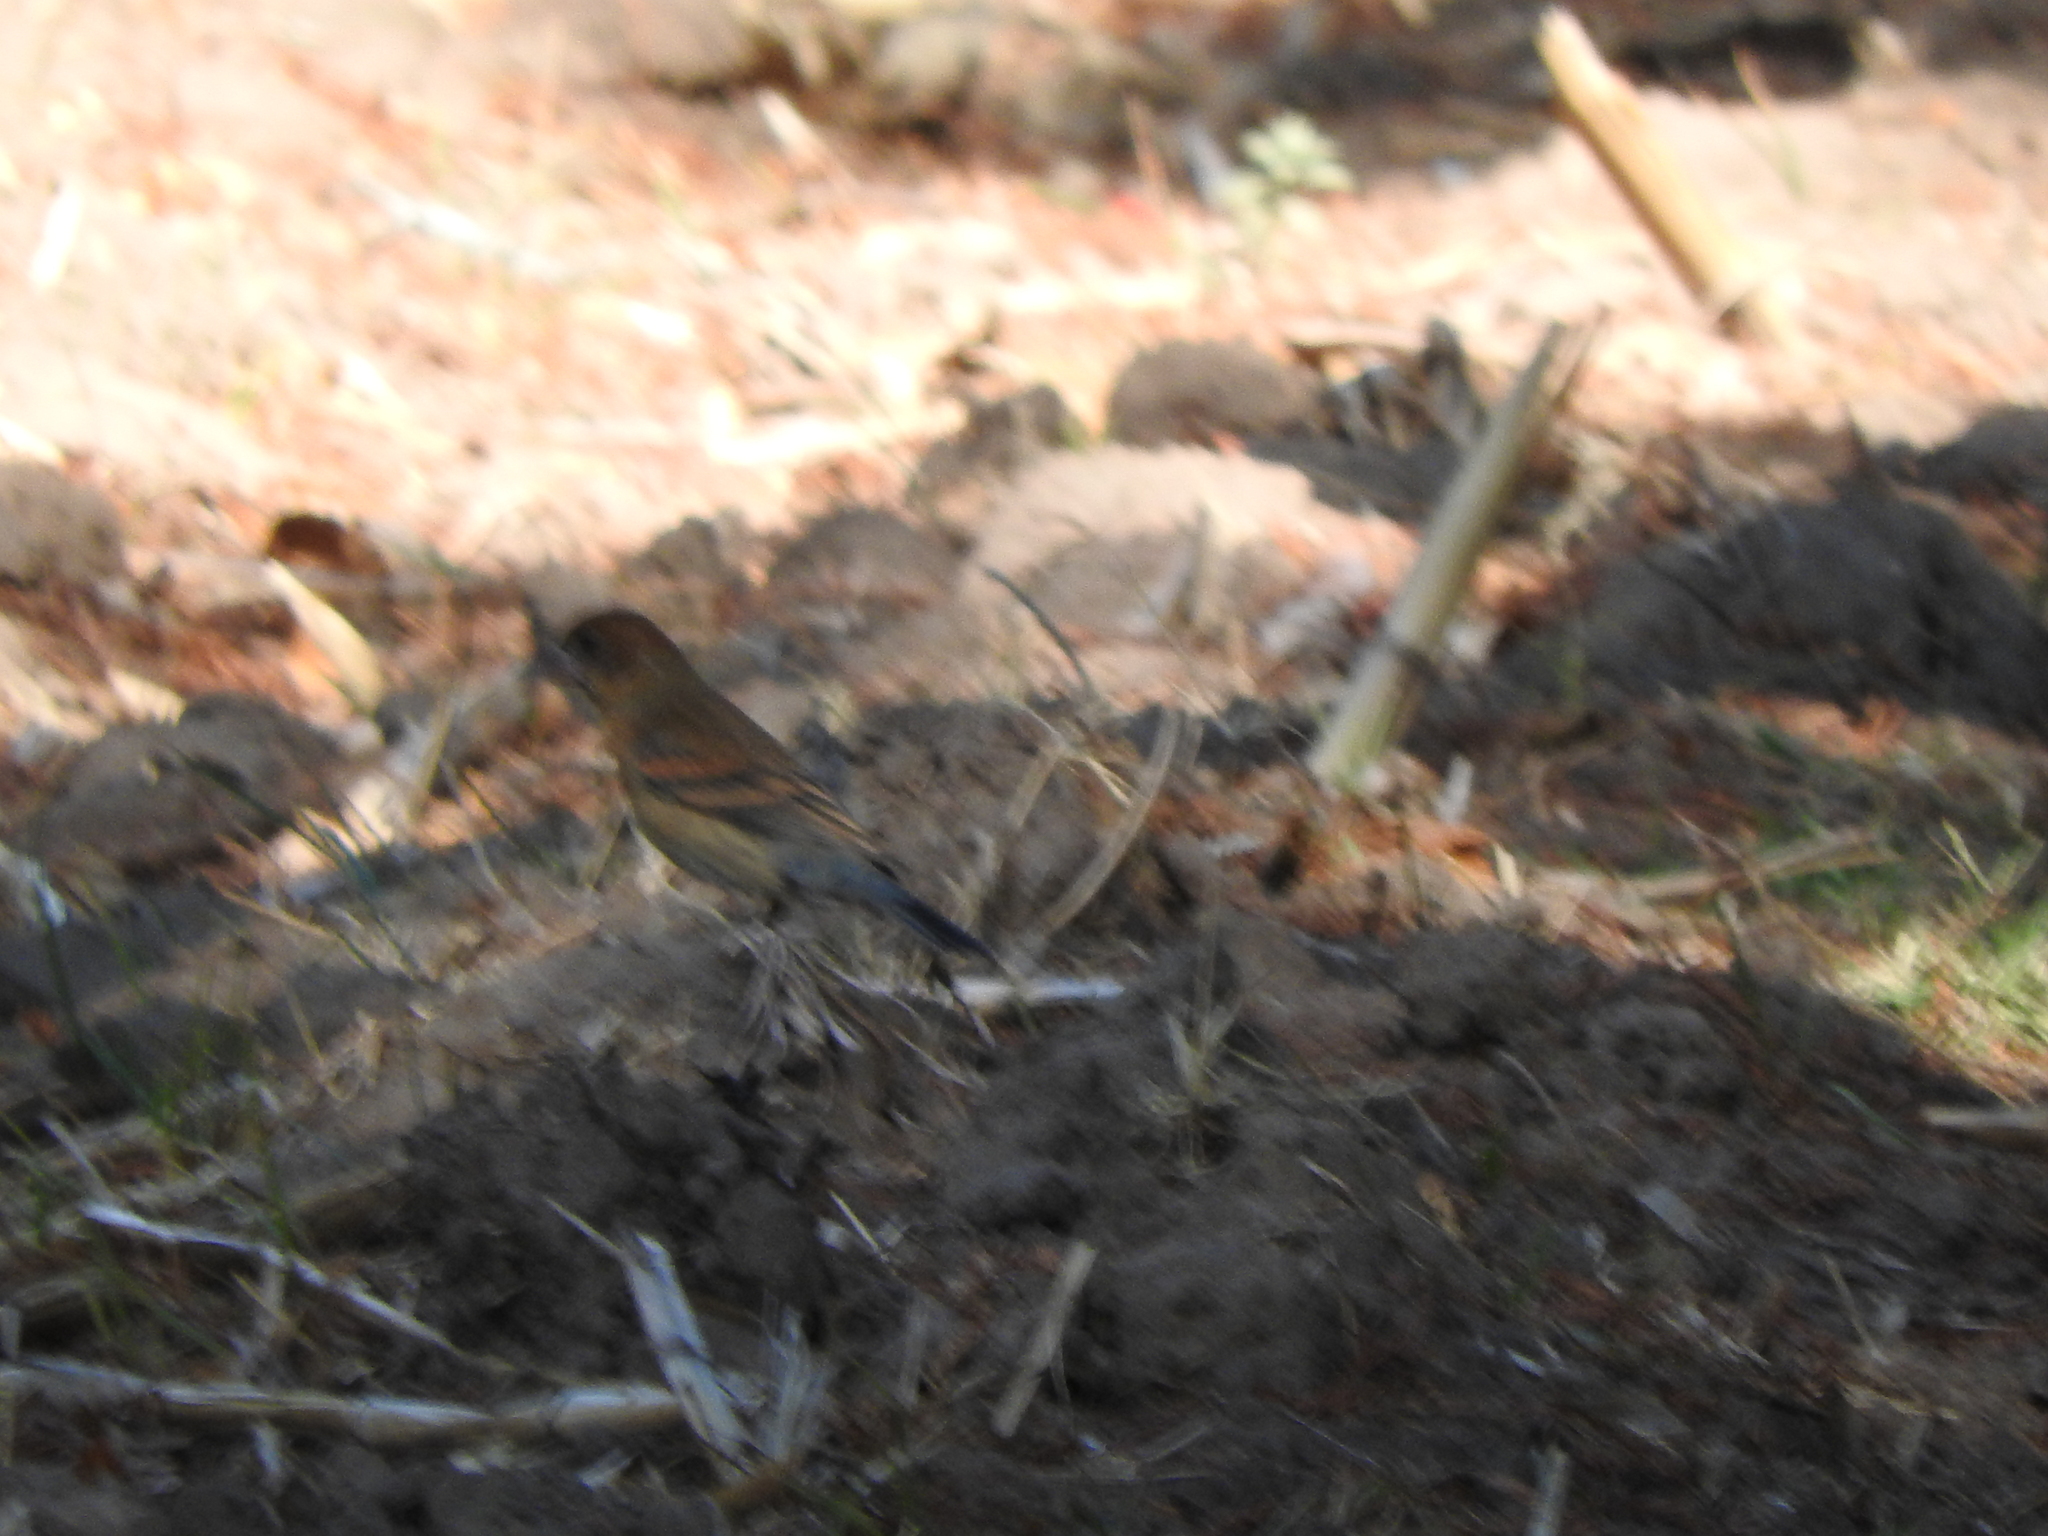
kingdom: Animalia
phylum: Chordata
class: Aves
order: Passeriformes
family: Cardinalidae
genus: Passerina
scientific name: Passerina caerulea
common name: Blue grosbeak
